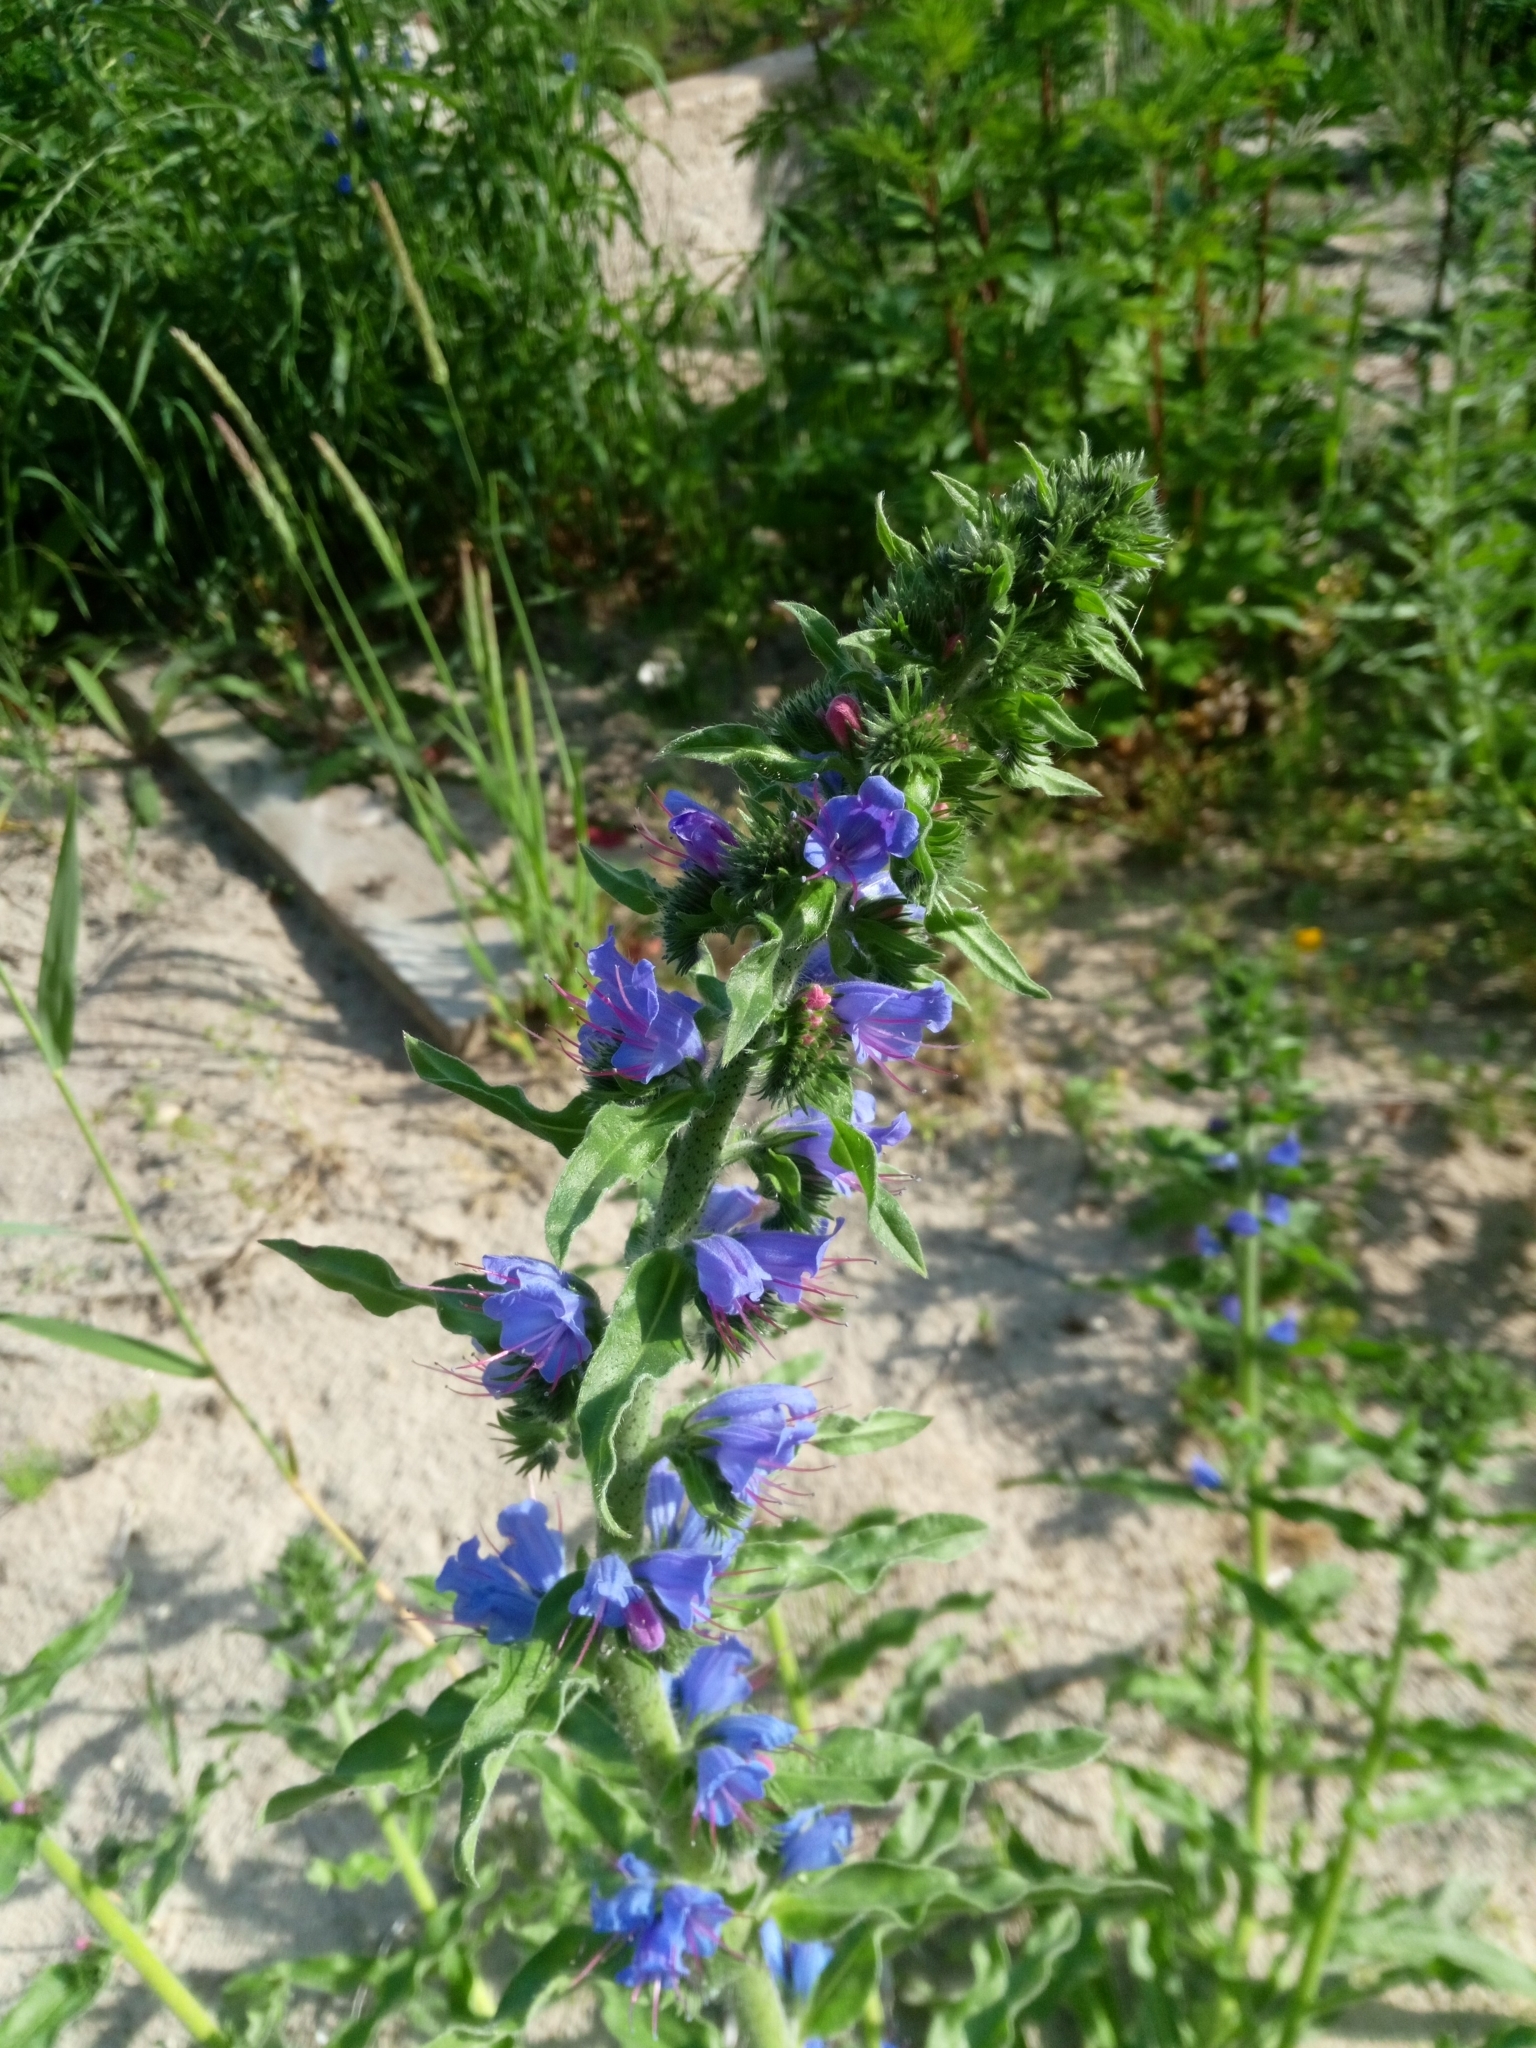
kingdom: Plantae
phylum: Tracheophyta
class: Magnoliopsida
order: Boraginales
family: Boraginaceae
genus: Echium
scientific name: Echium vulgare
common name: Common viper's bugloss
